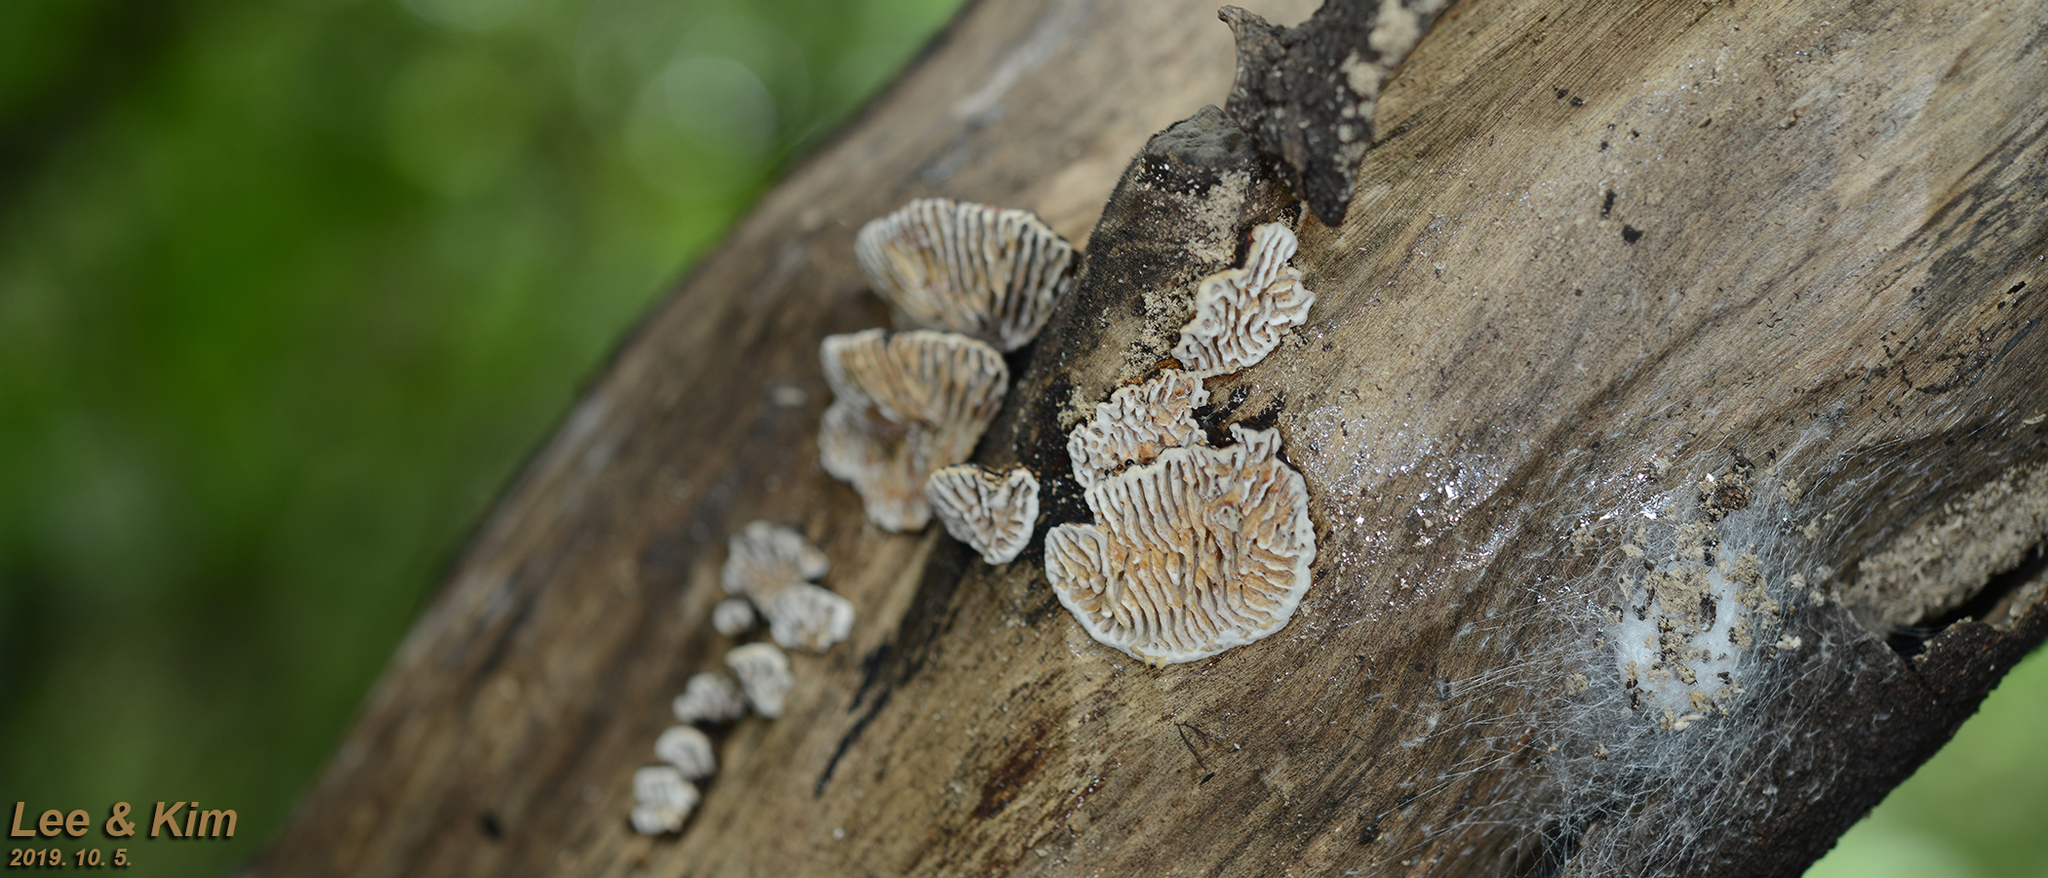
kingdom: Fungi
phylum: Basidiomycota
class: Agaricomycetes
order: Polyporales
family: Polyporaceae
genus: Lenzites
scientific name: Lenzites betulinus
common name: Birch mazegill
